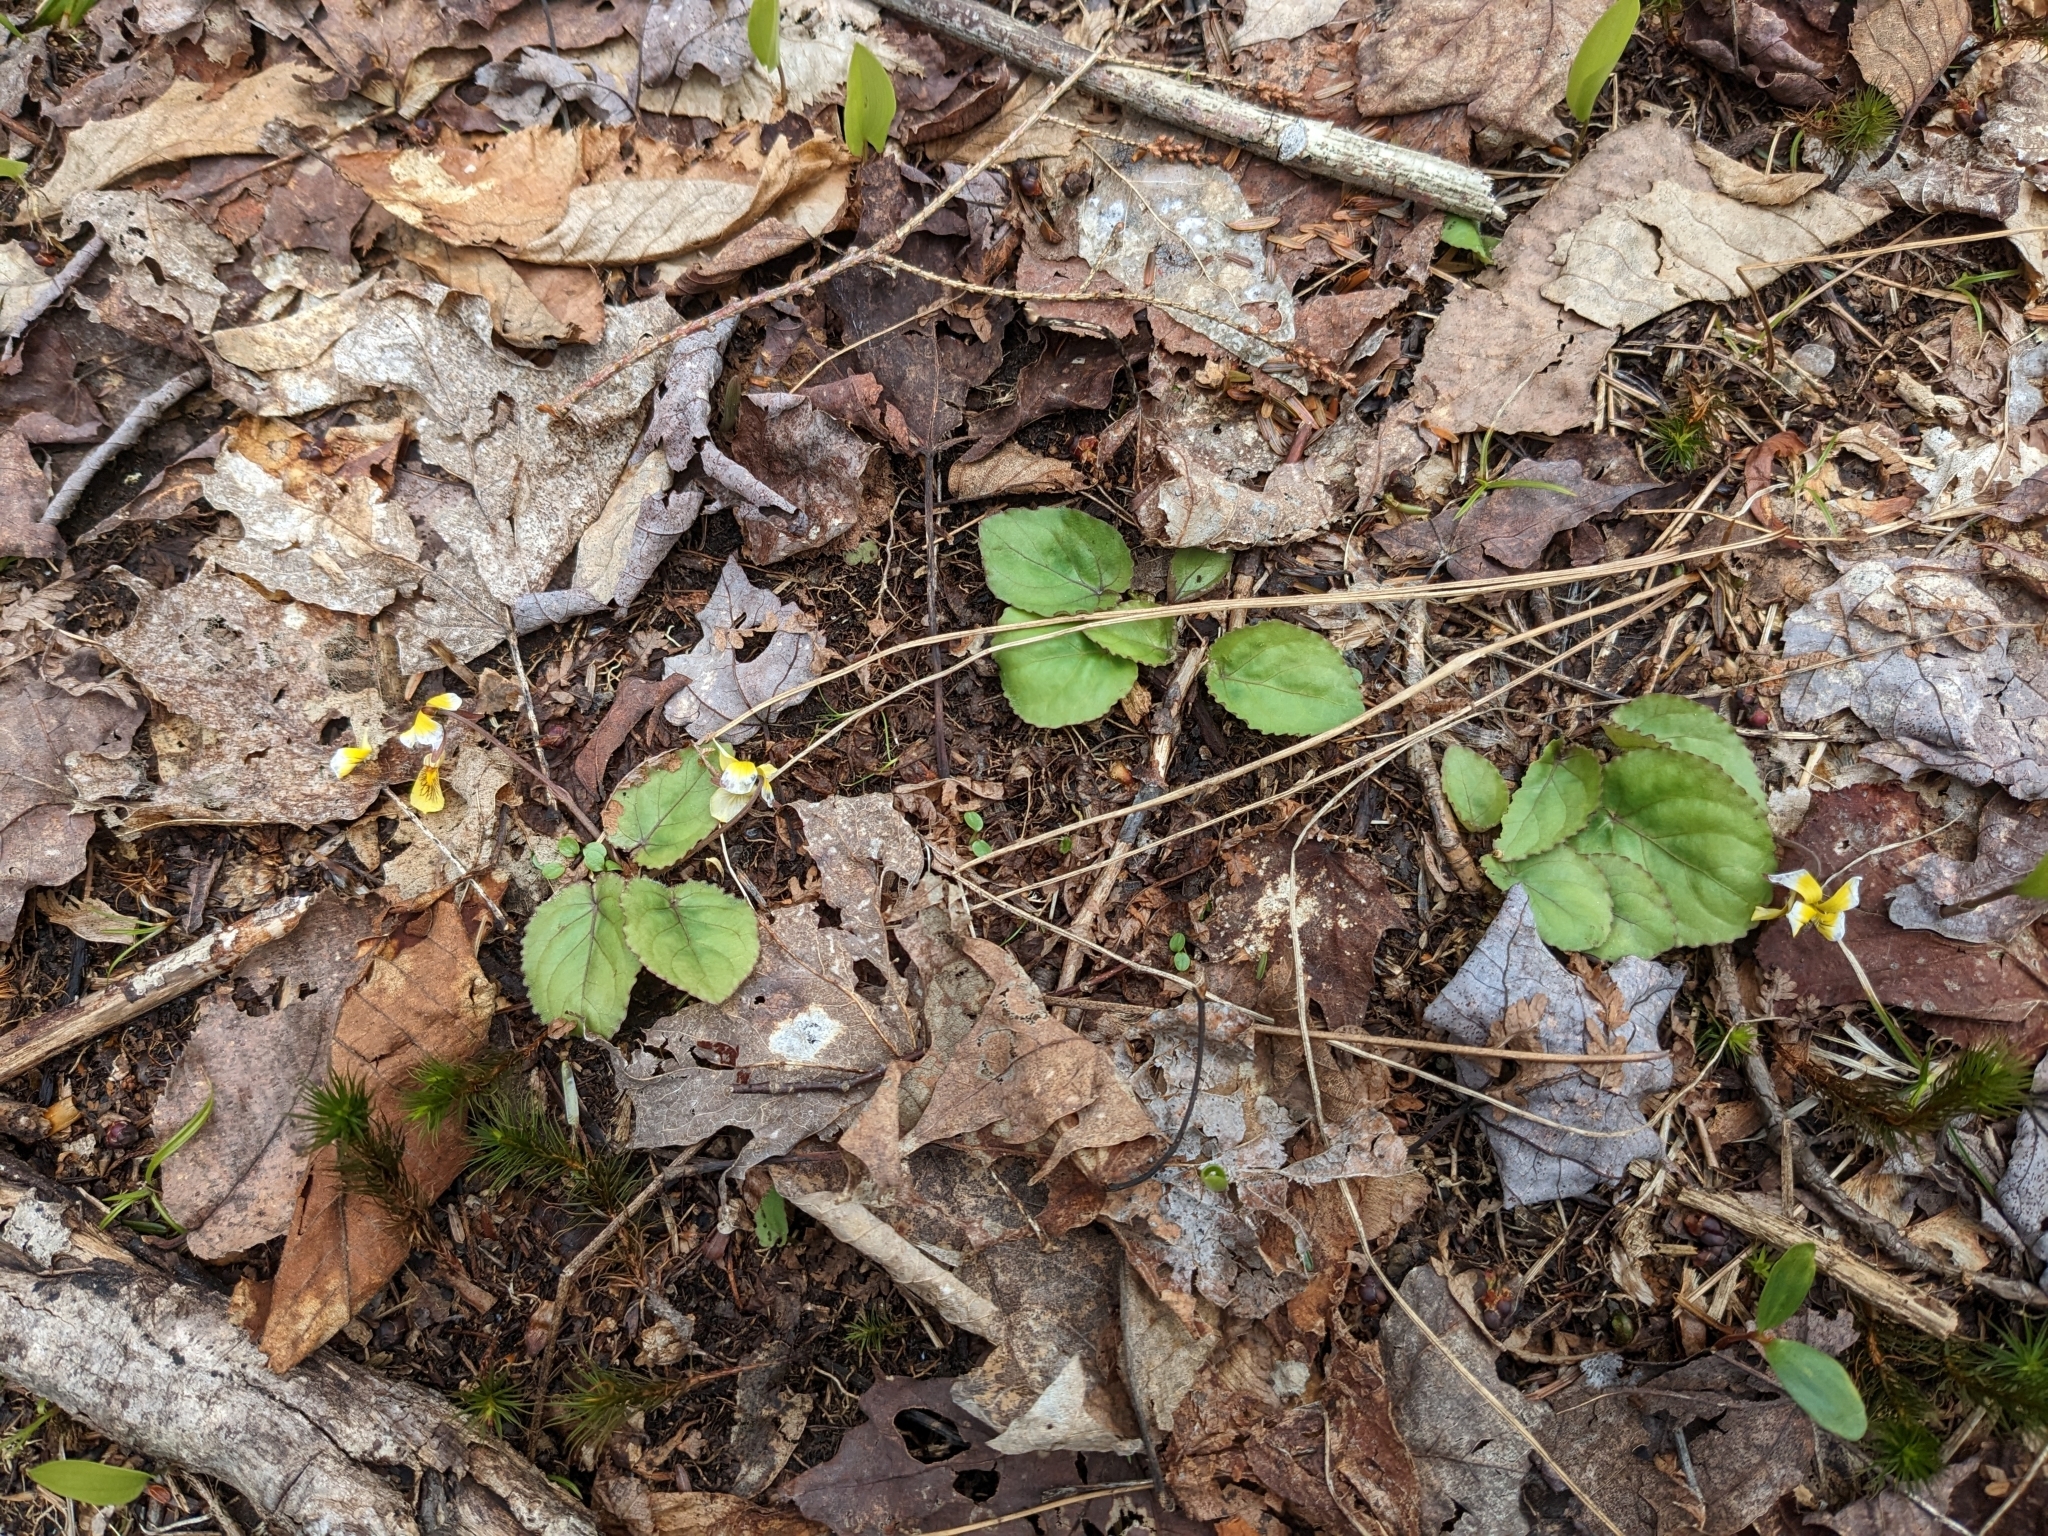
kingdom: Plantae
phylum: Tracheophyta
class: Magnoliopsida
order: Malpighiales
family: Violaceae
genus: Viola
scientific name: Viola rotundifolia
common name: Early yellow violet
